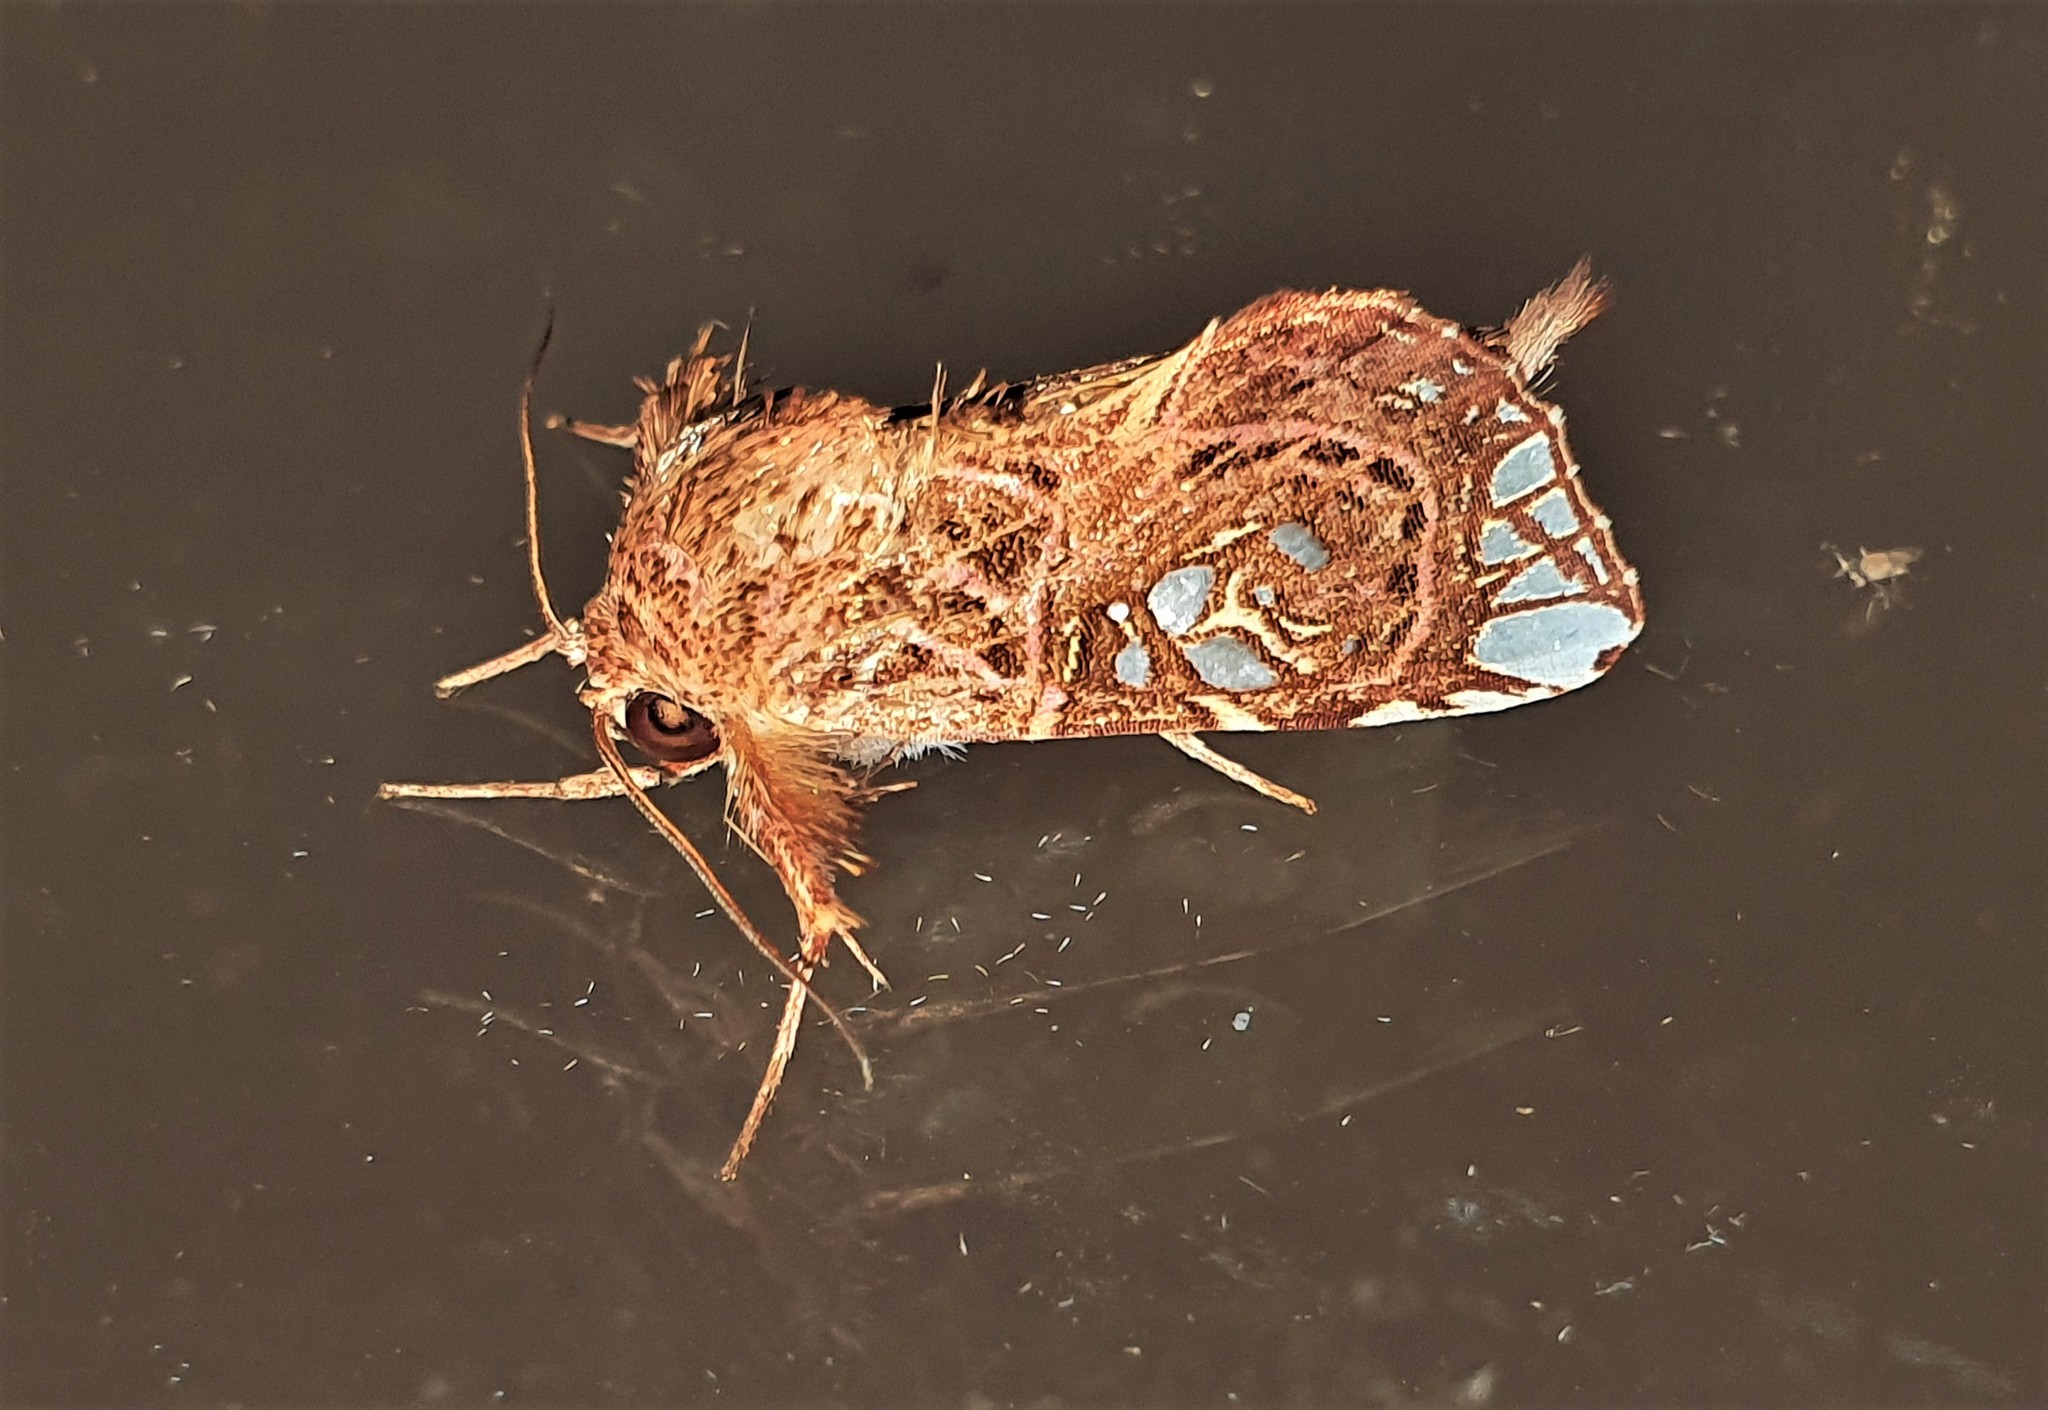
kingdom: Animalia
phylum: Arthropoda
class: Insecta
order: Lepidoptera
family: Noctuidae
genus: Callopistria
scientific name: Callopistria meres
